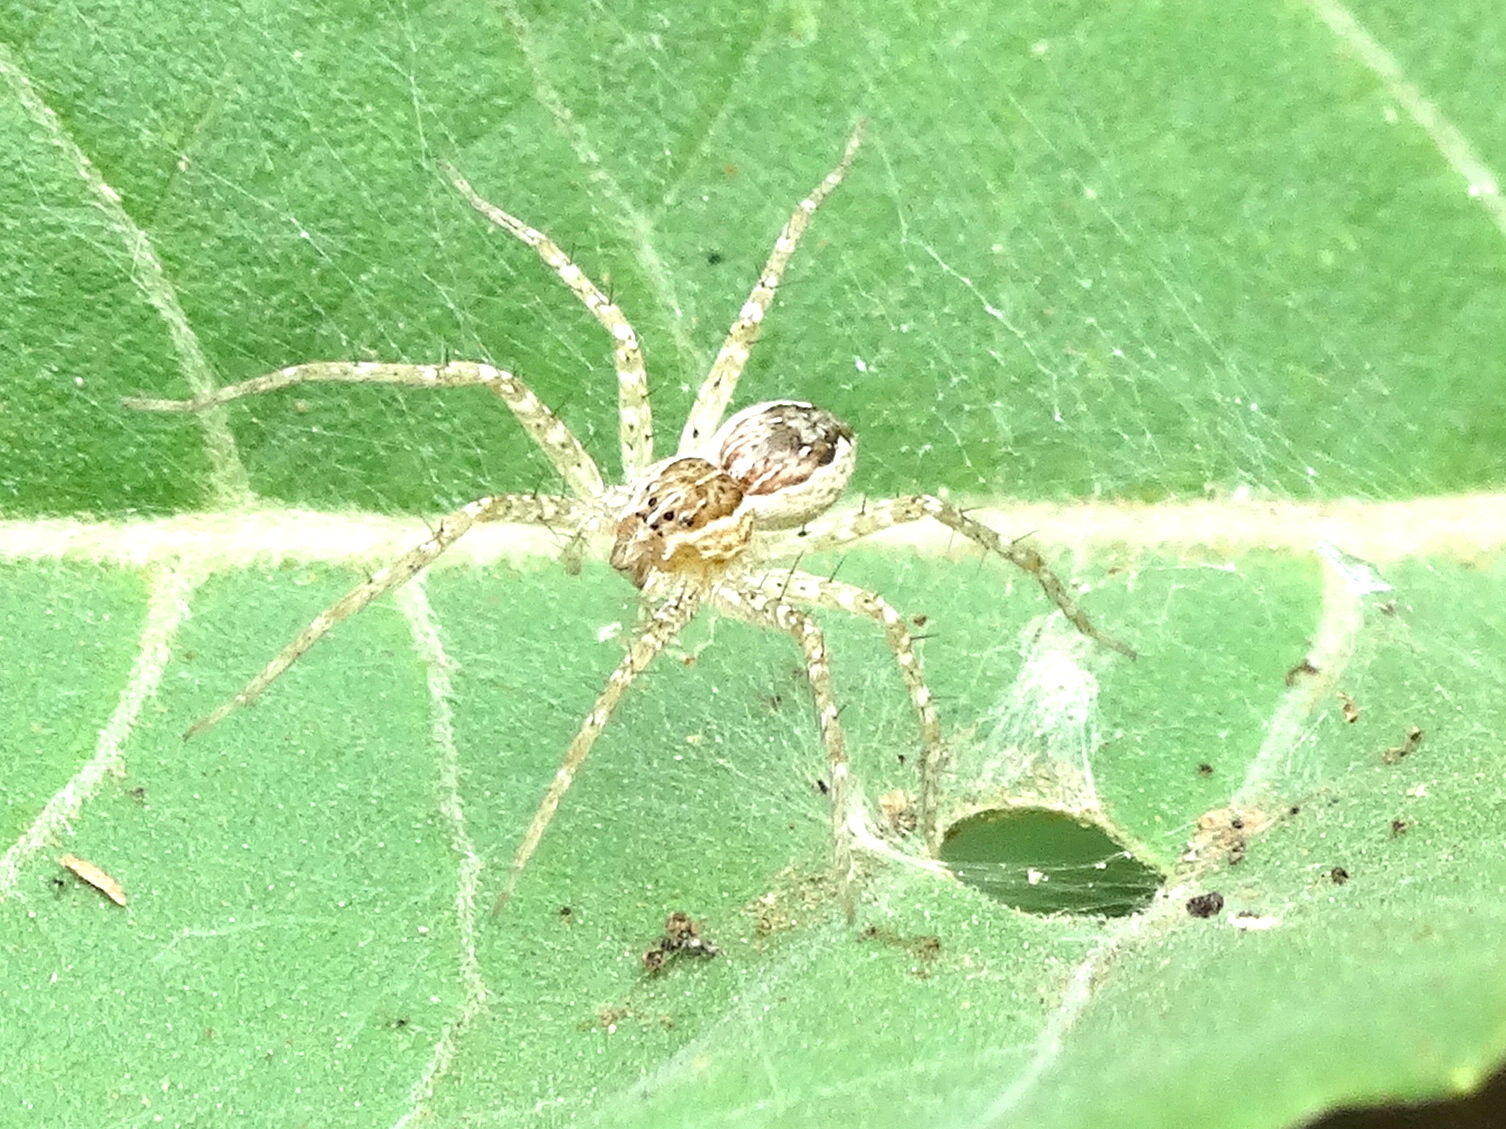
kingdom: Animalia
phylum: Arthropoda
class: Arachnida
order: Araneae
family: Pisauridae
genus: Tinus
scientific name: Tinus
